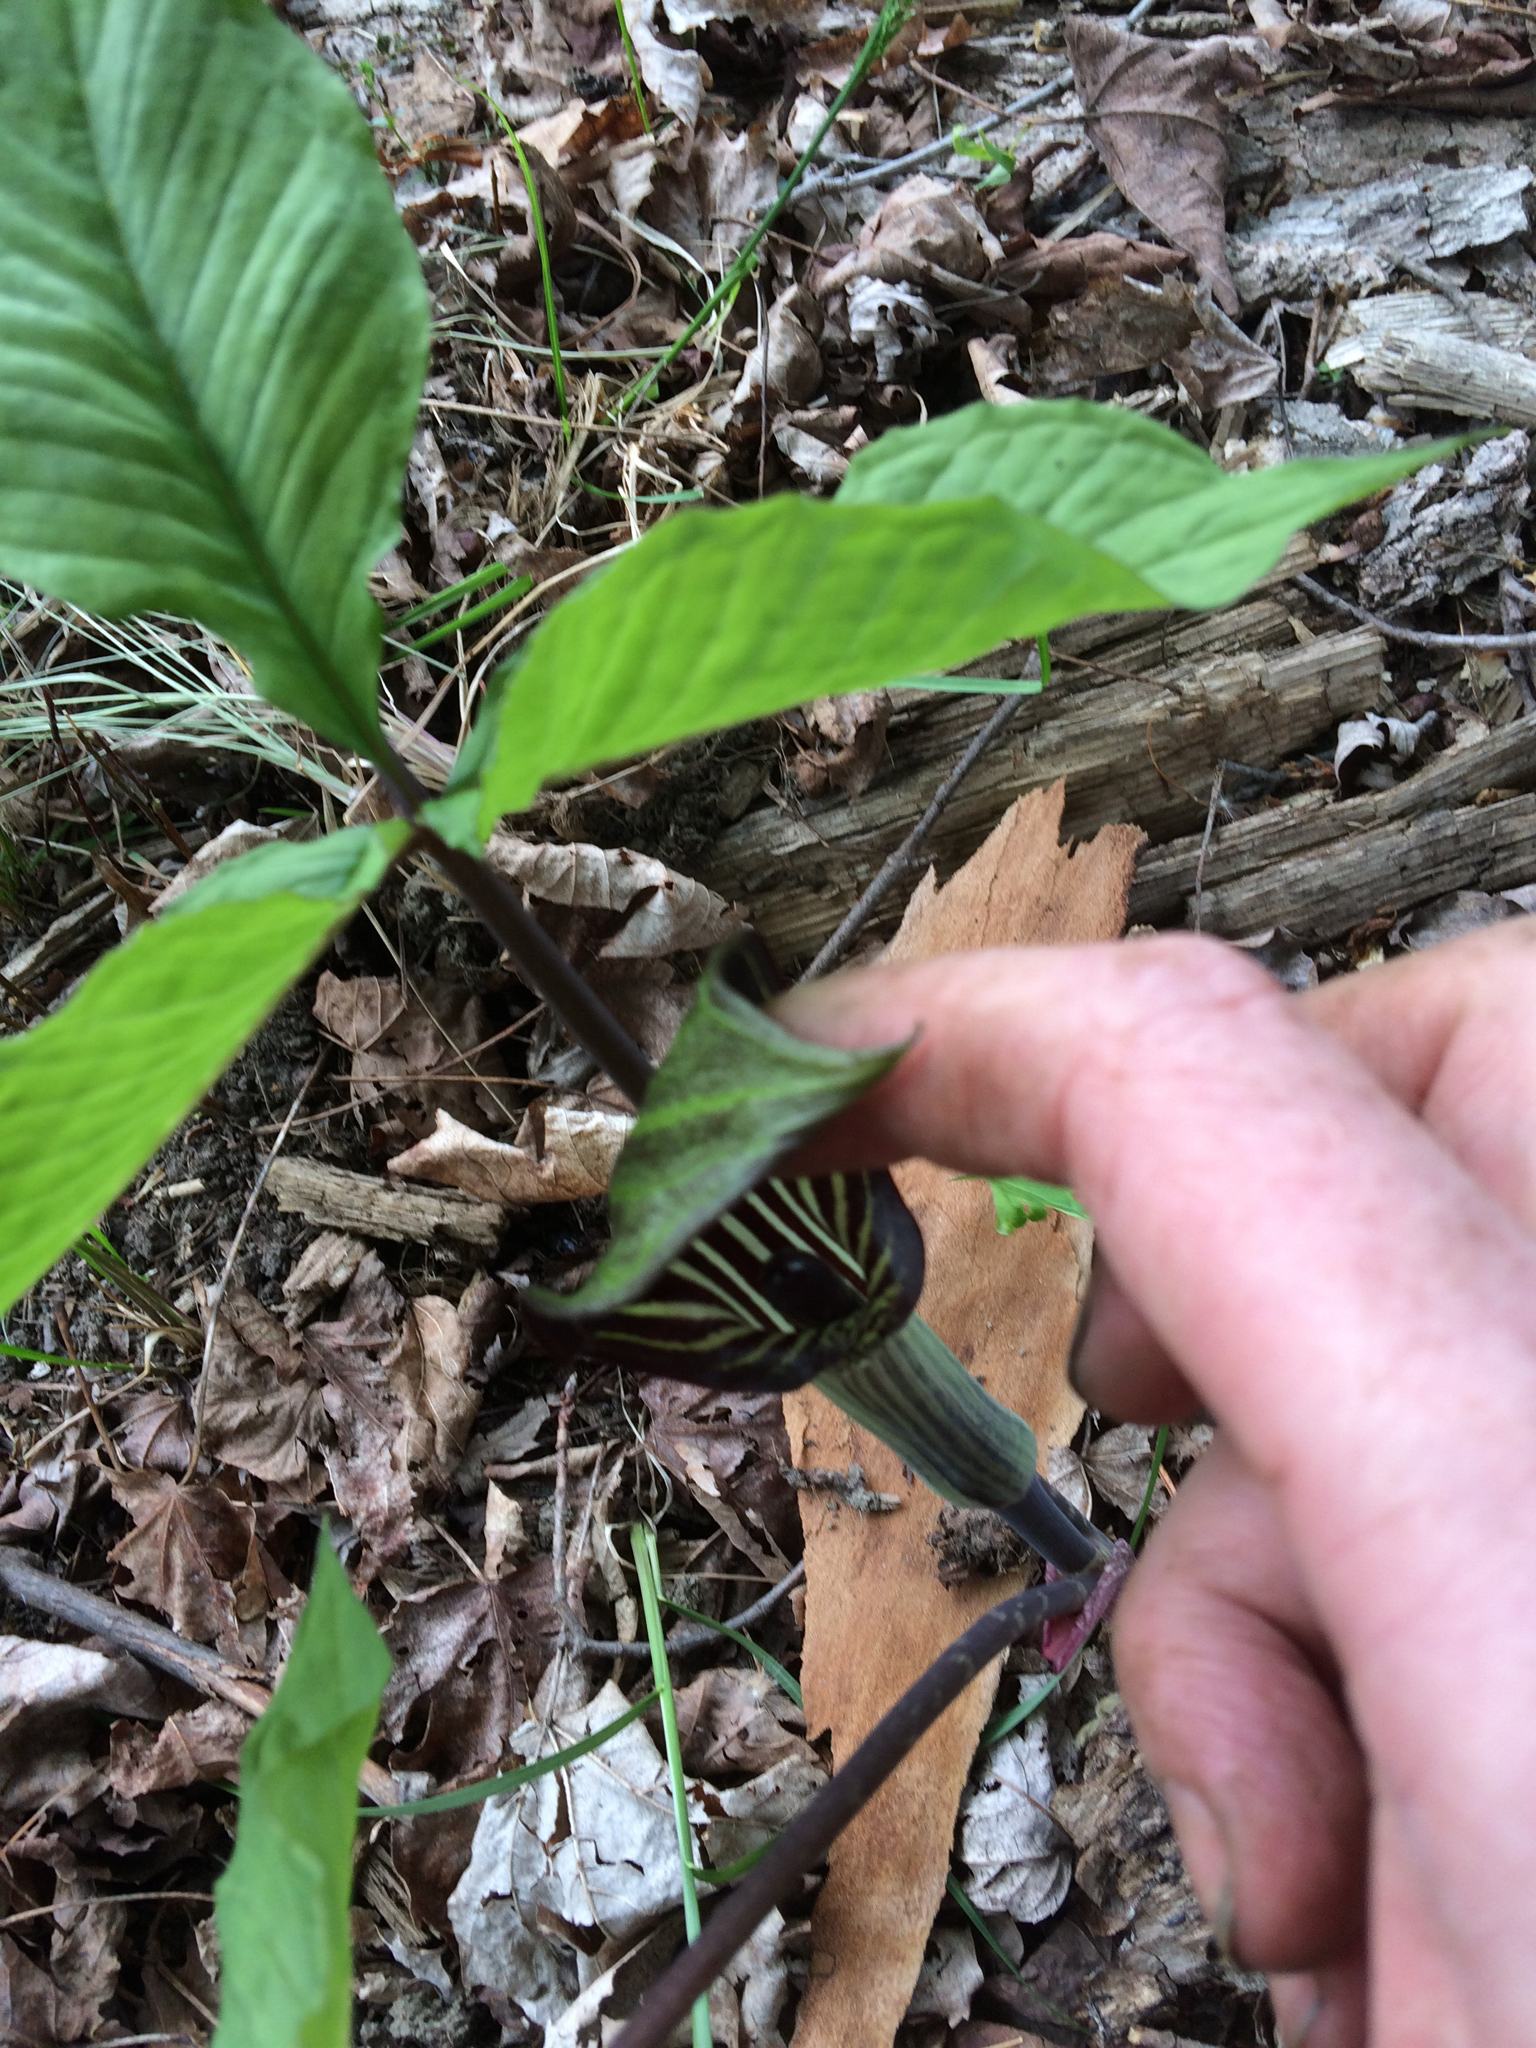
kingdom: Plantae
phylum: Tracheophyta
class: Liliopsida
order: Alismatales
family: Araceae
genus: Arisaema
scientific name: Arisaema triphyllum
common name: Jack-in-the-pulpit
